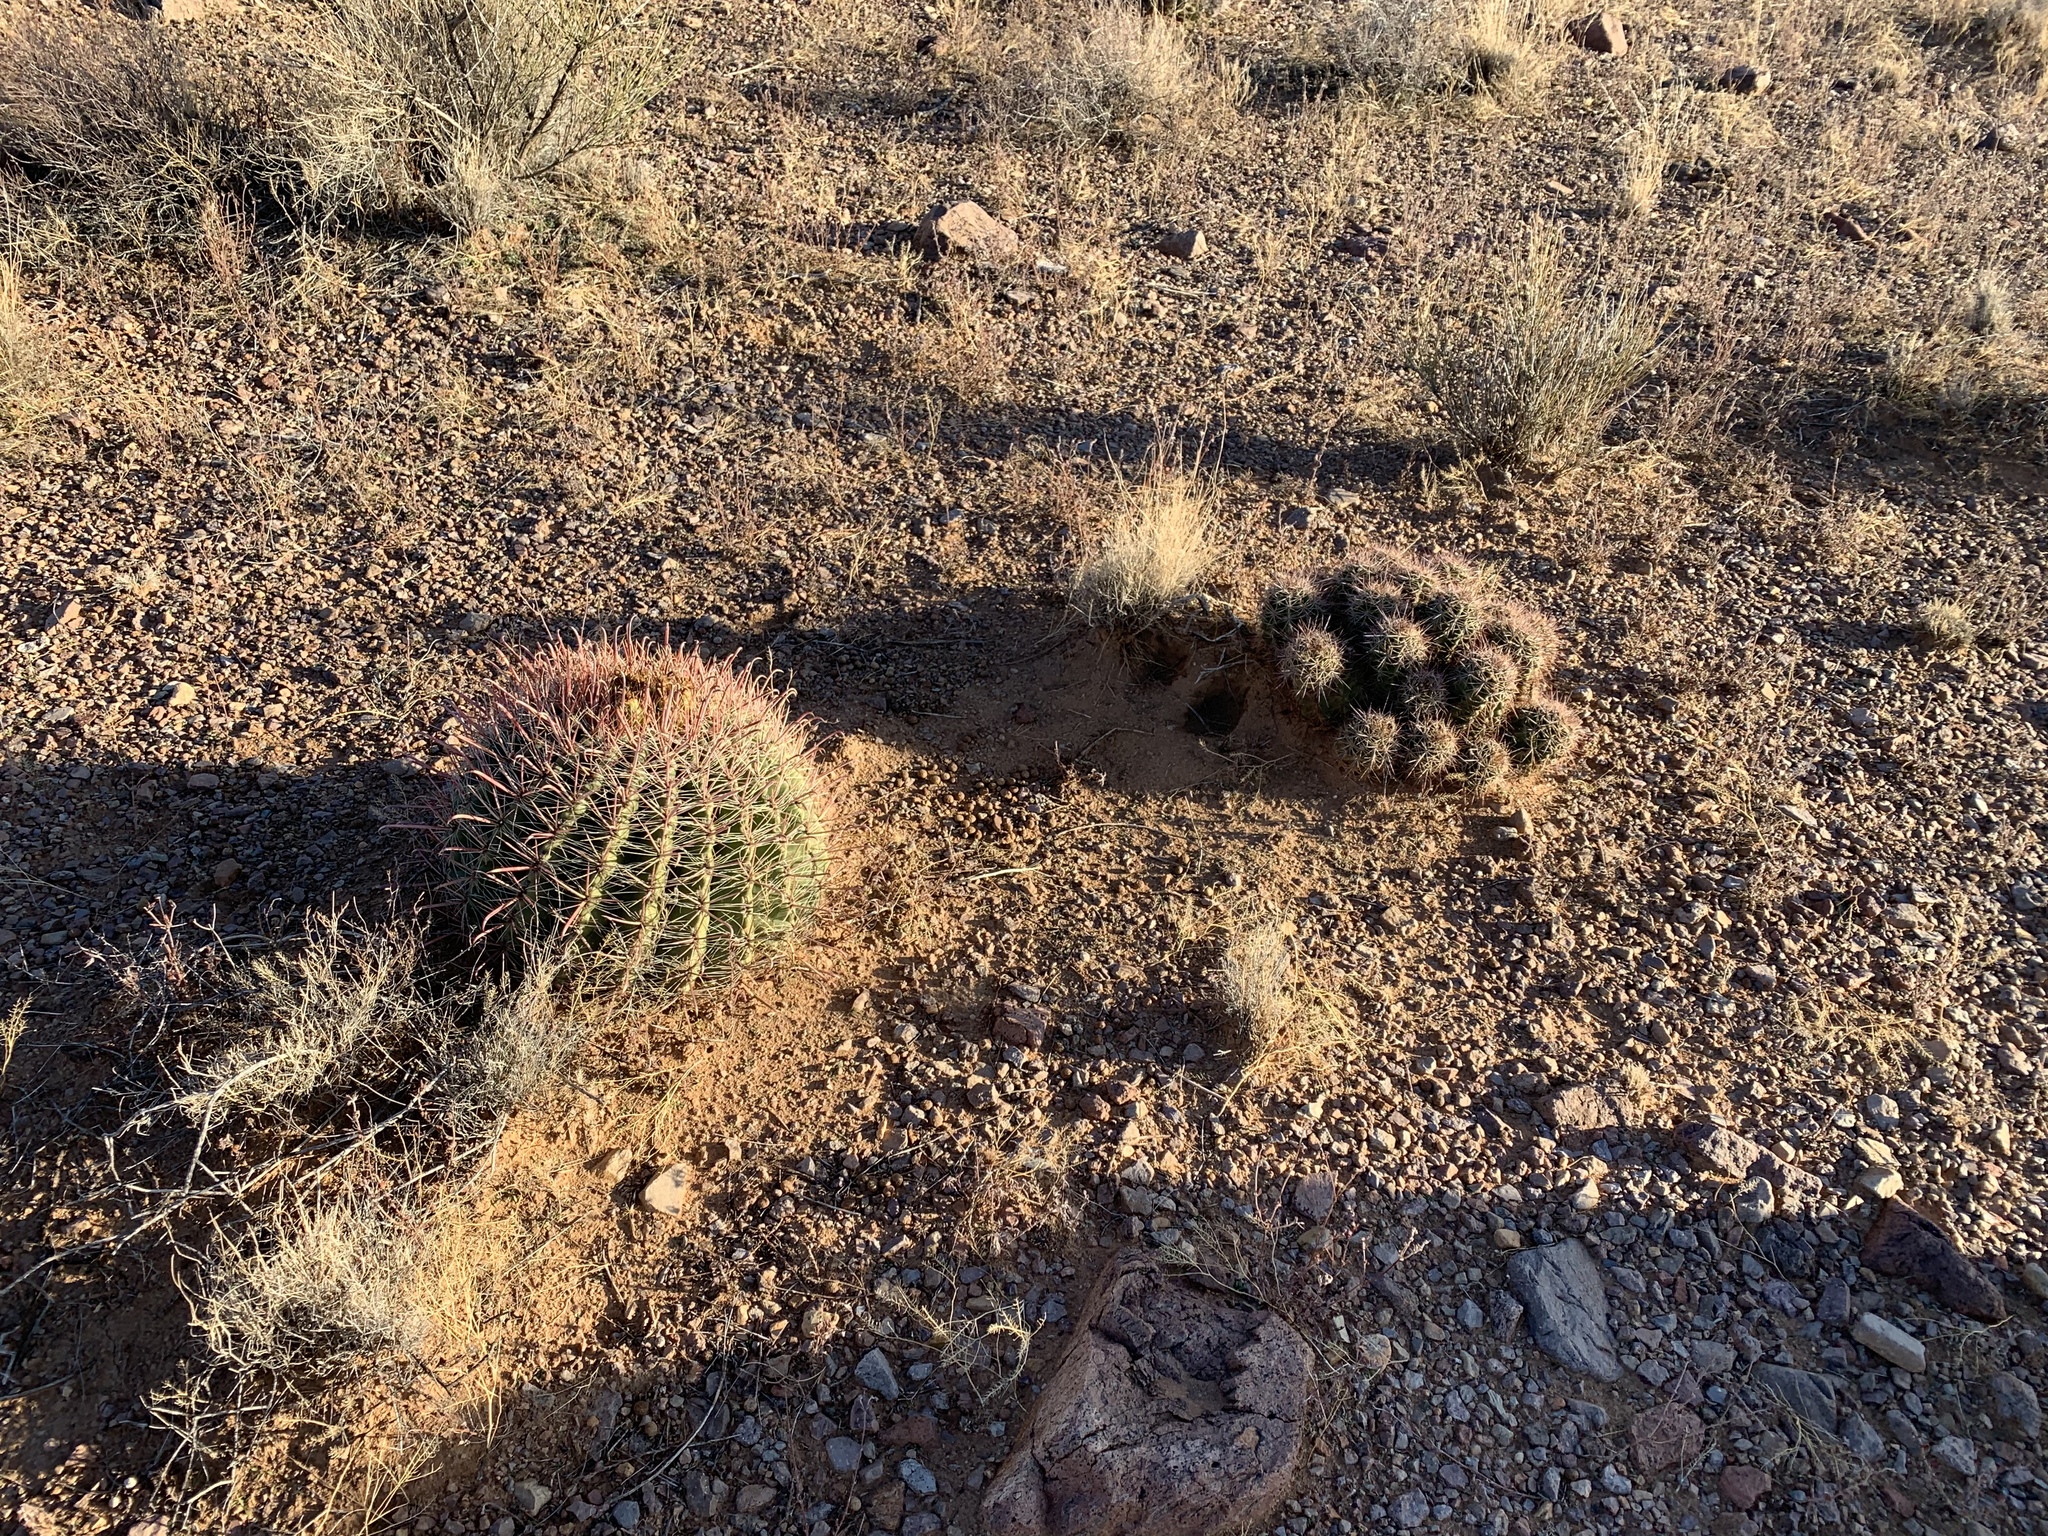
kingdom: Plantae
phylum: Tracheophyta
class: Magnoliopsida
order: Caryophyllales
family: Cactaceae
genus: Ferocactus
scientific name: Ferocactus wislizeni
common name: Candy barrel cactus
